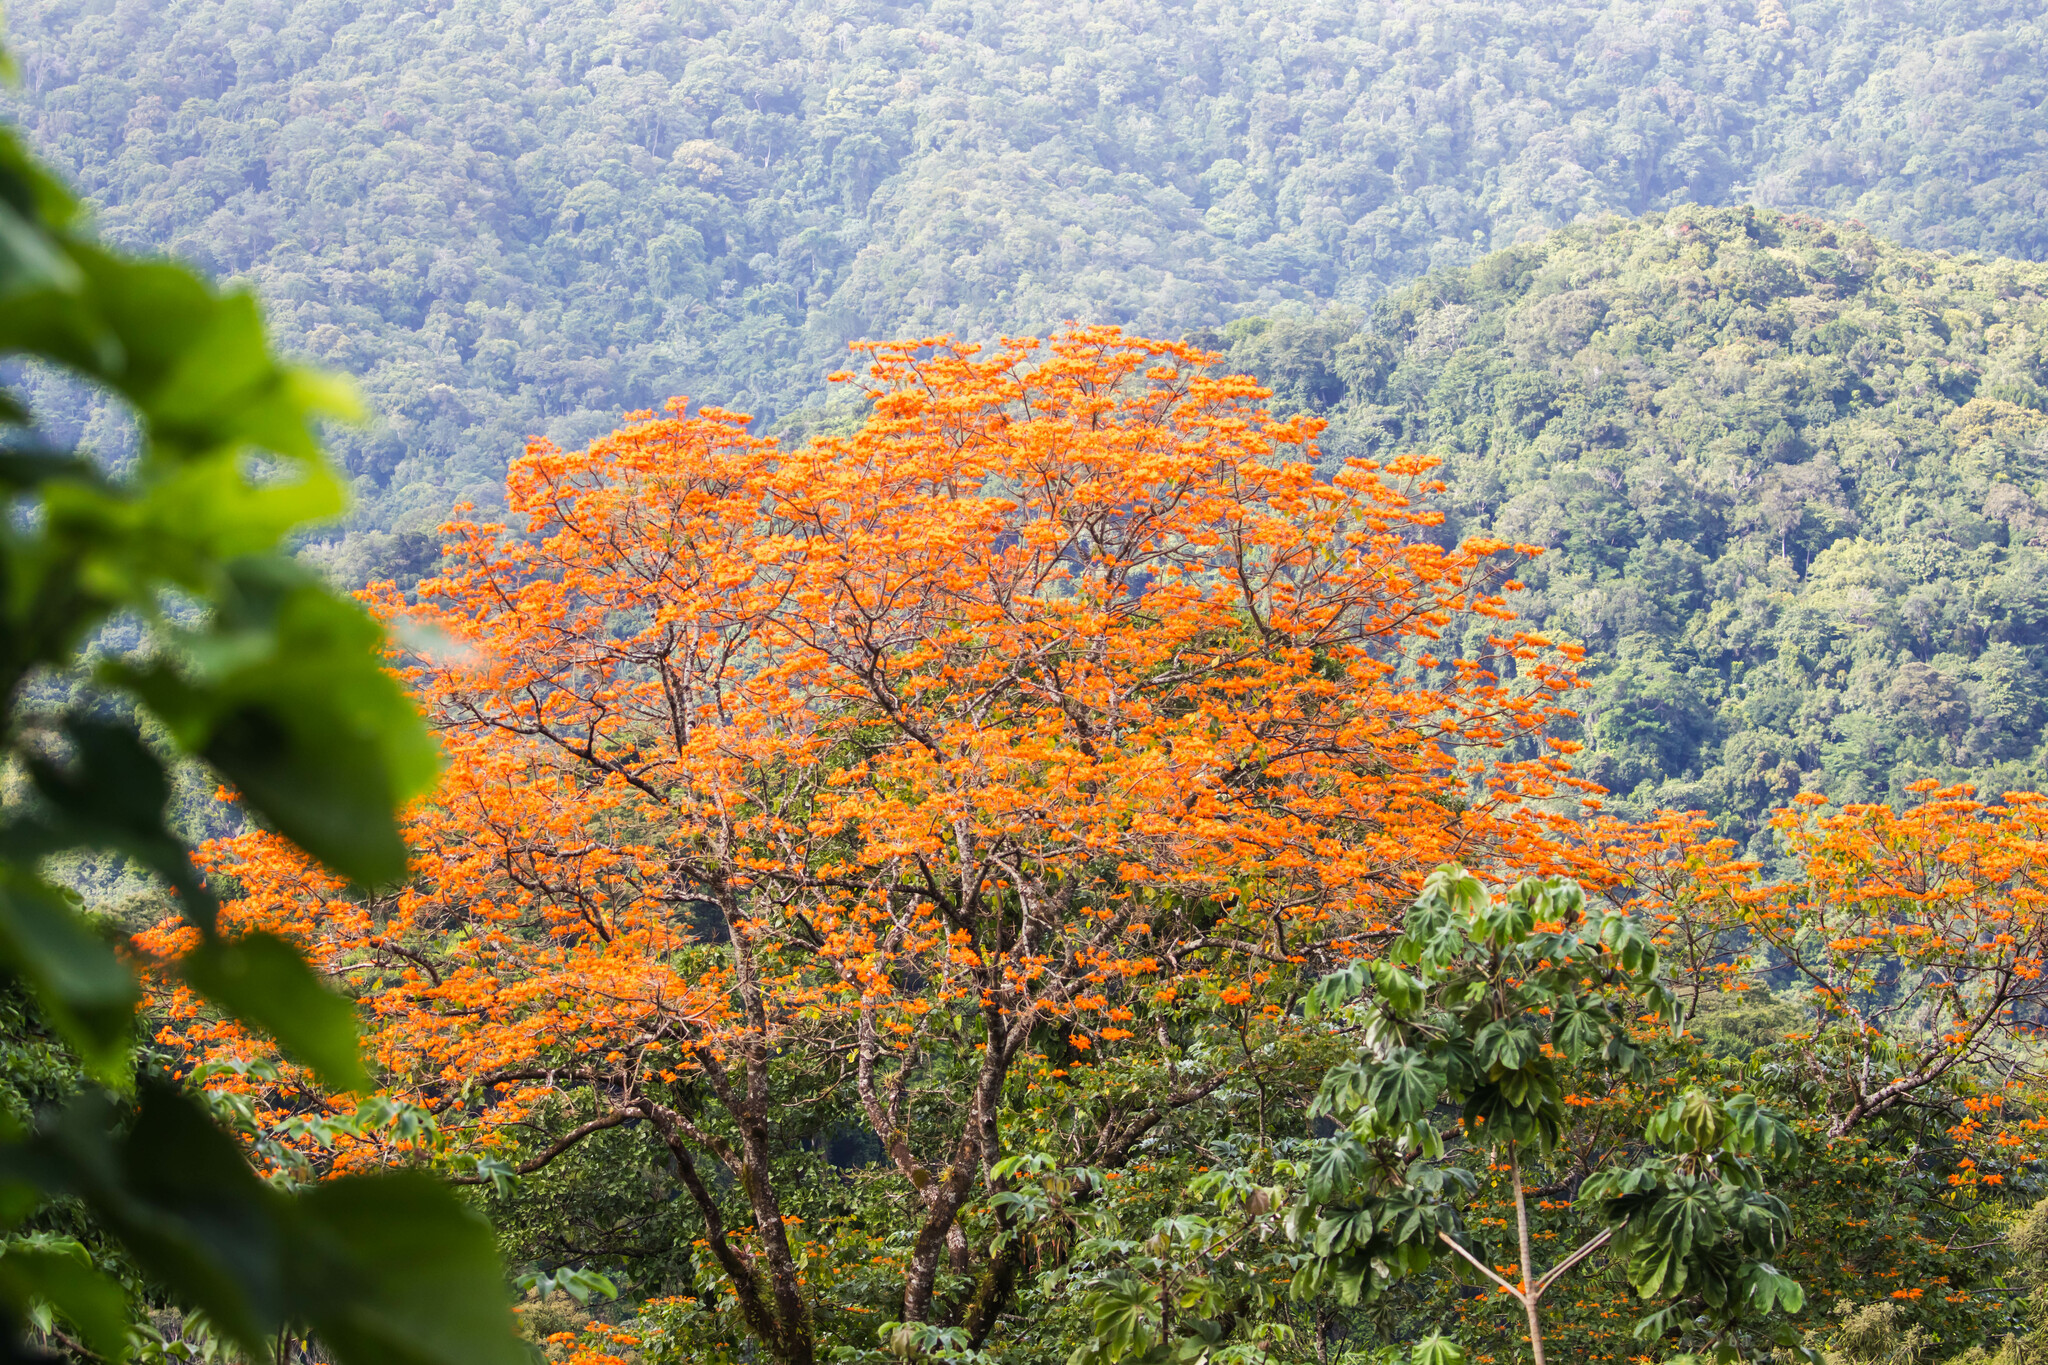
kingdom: Plantae
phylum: Tracheophyta
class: Magnoliopsida
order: Fabales
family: Fabaceae
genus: Erythrina
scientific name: Erythrina poeppigiana
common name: Coral tree
